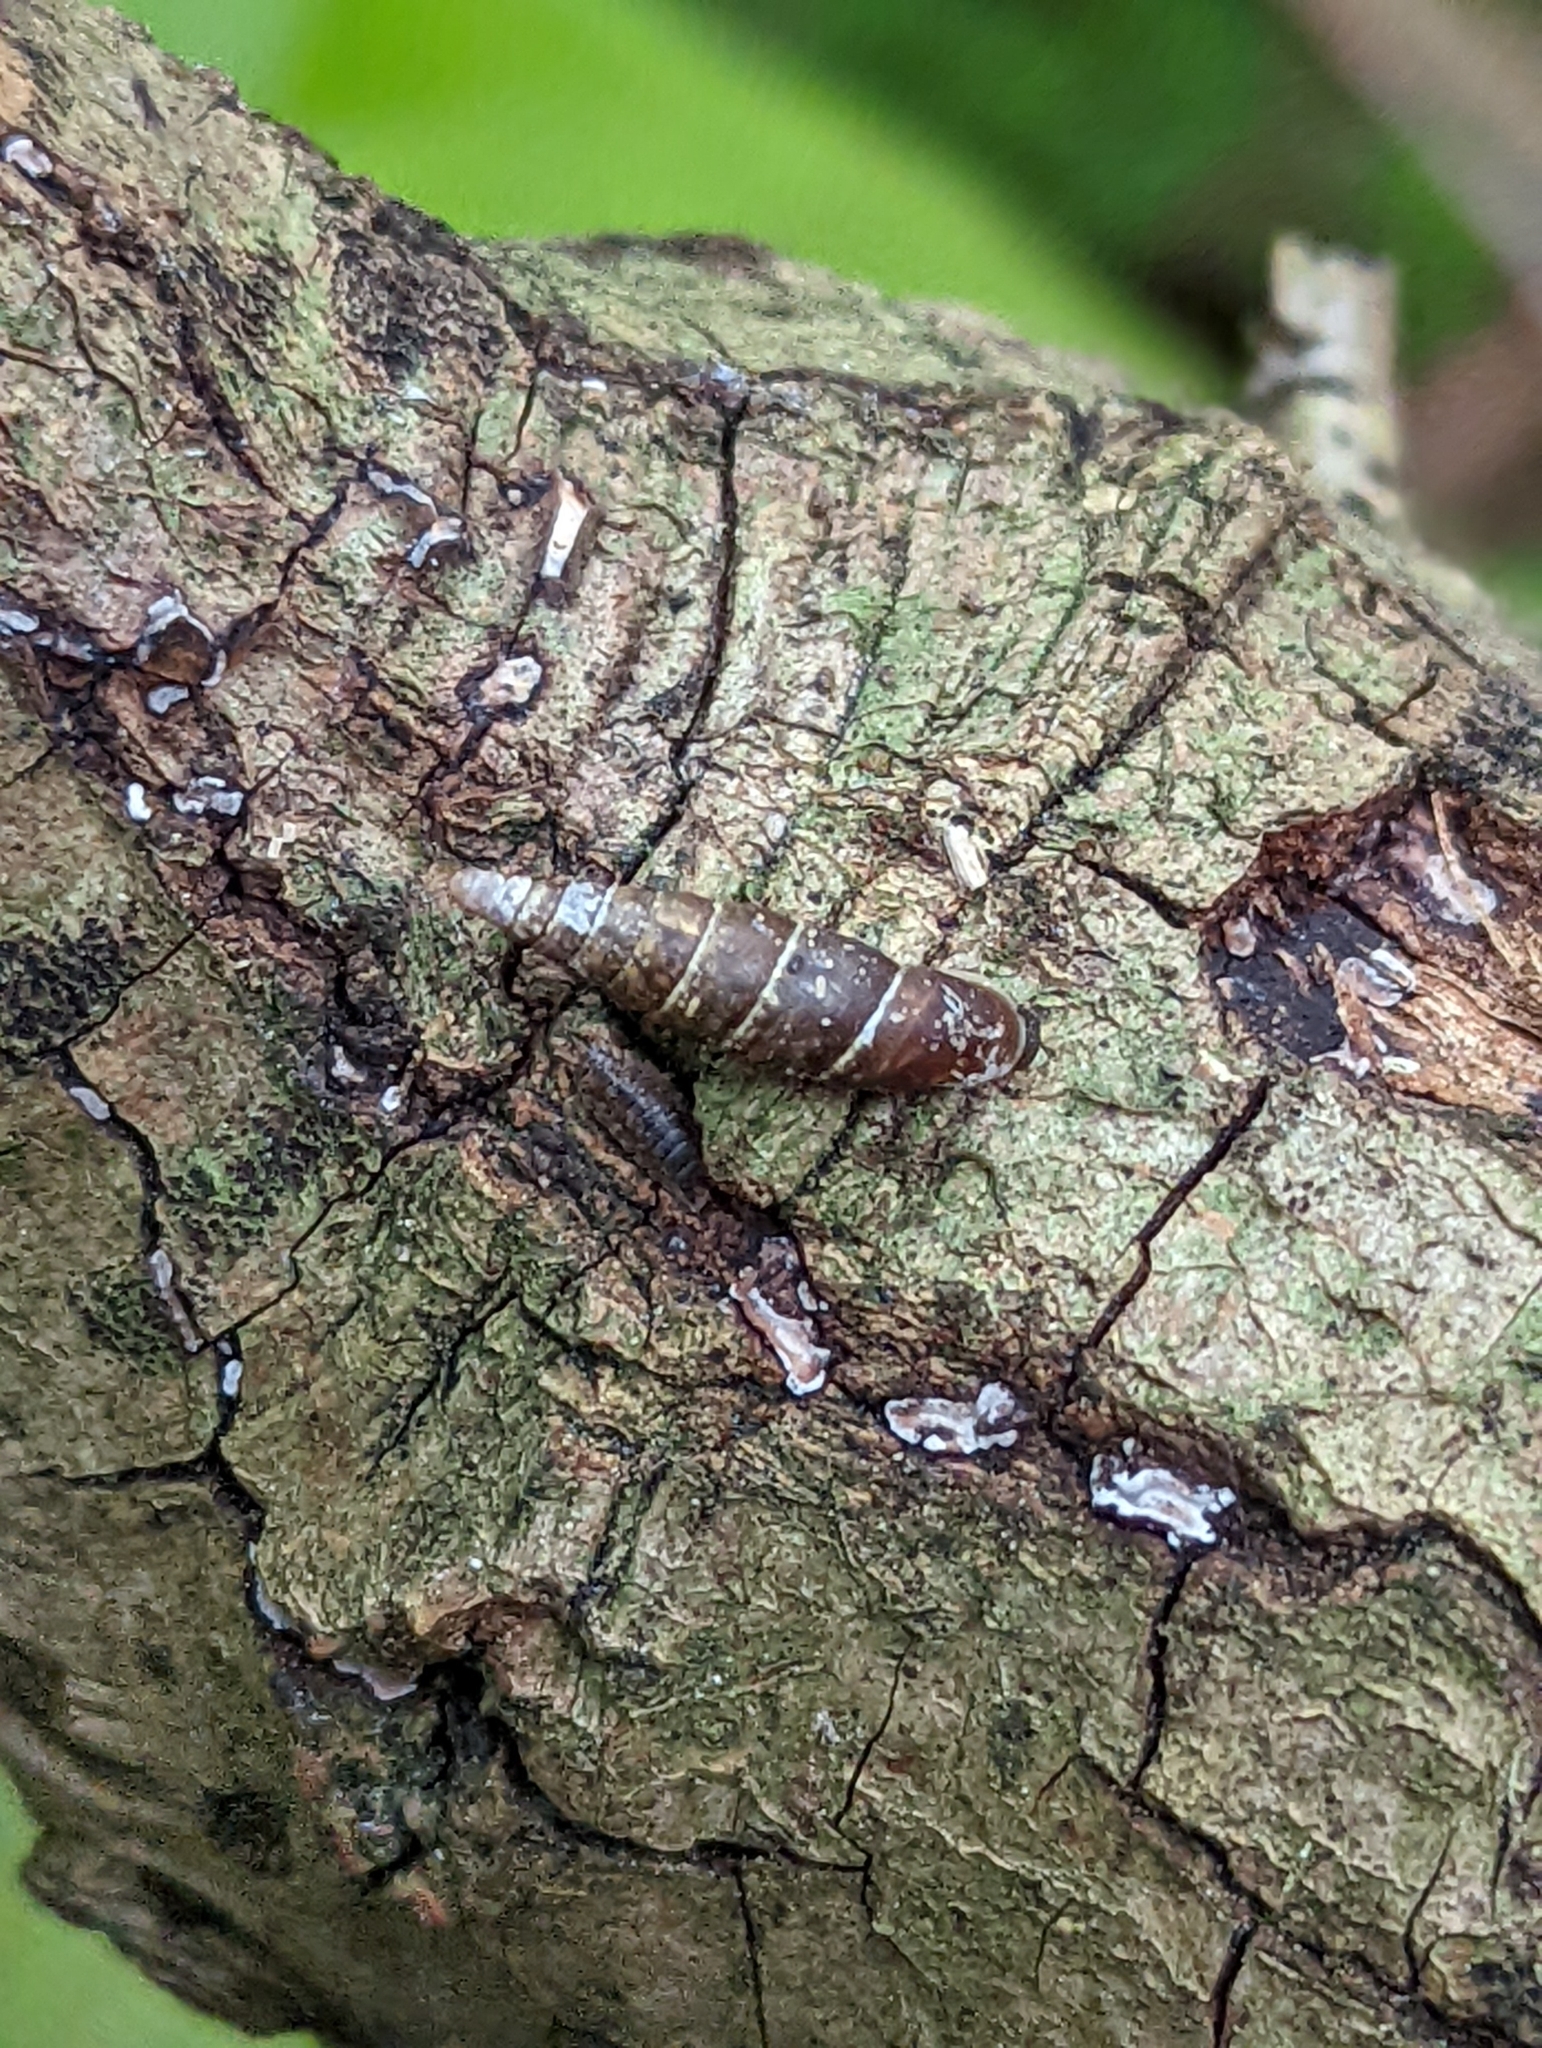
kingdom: Animalia
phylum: Mollusca
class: Gastropoda
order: Stylommatophora
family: Clausiliidae
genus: Cochlodina
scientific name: Cochlodina laminata
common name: Plaited door snail
